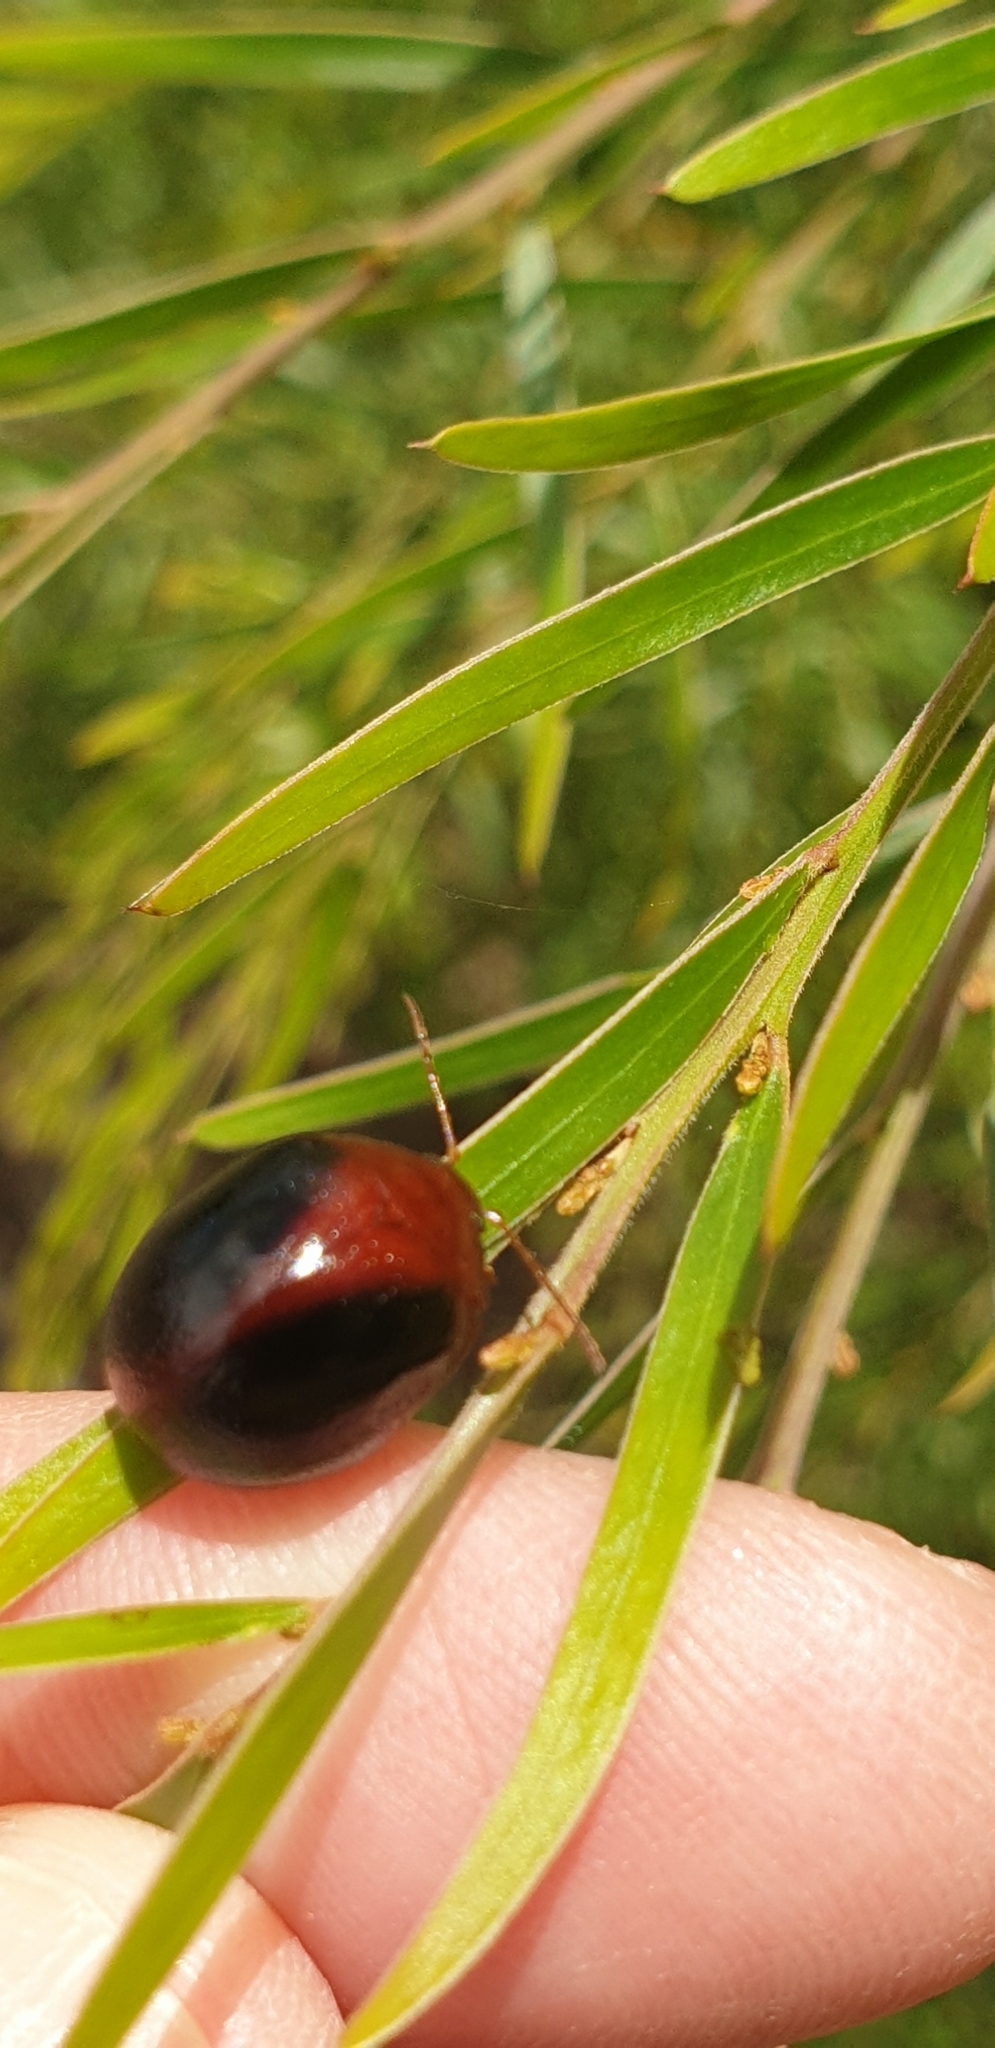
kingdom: Animalia
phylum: Arthropoda
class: Insecta
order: Coleoptera
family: Chrysomelidae
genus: Dicranosterna
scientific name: Dicranosterna
